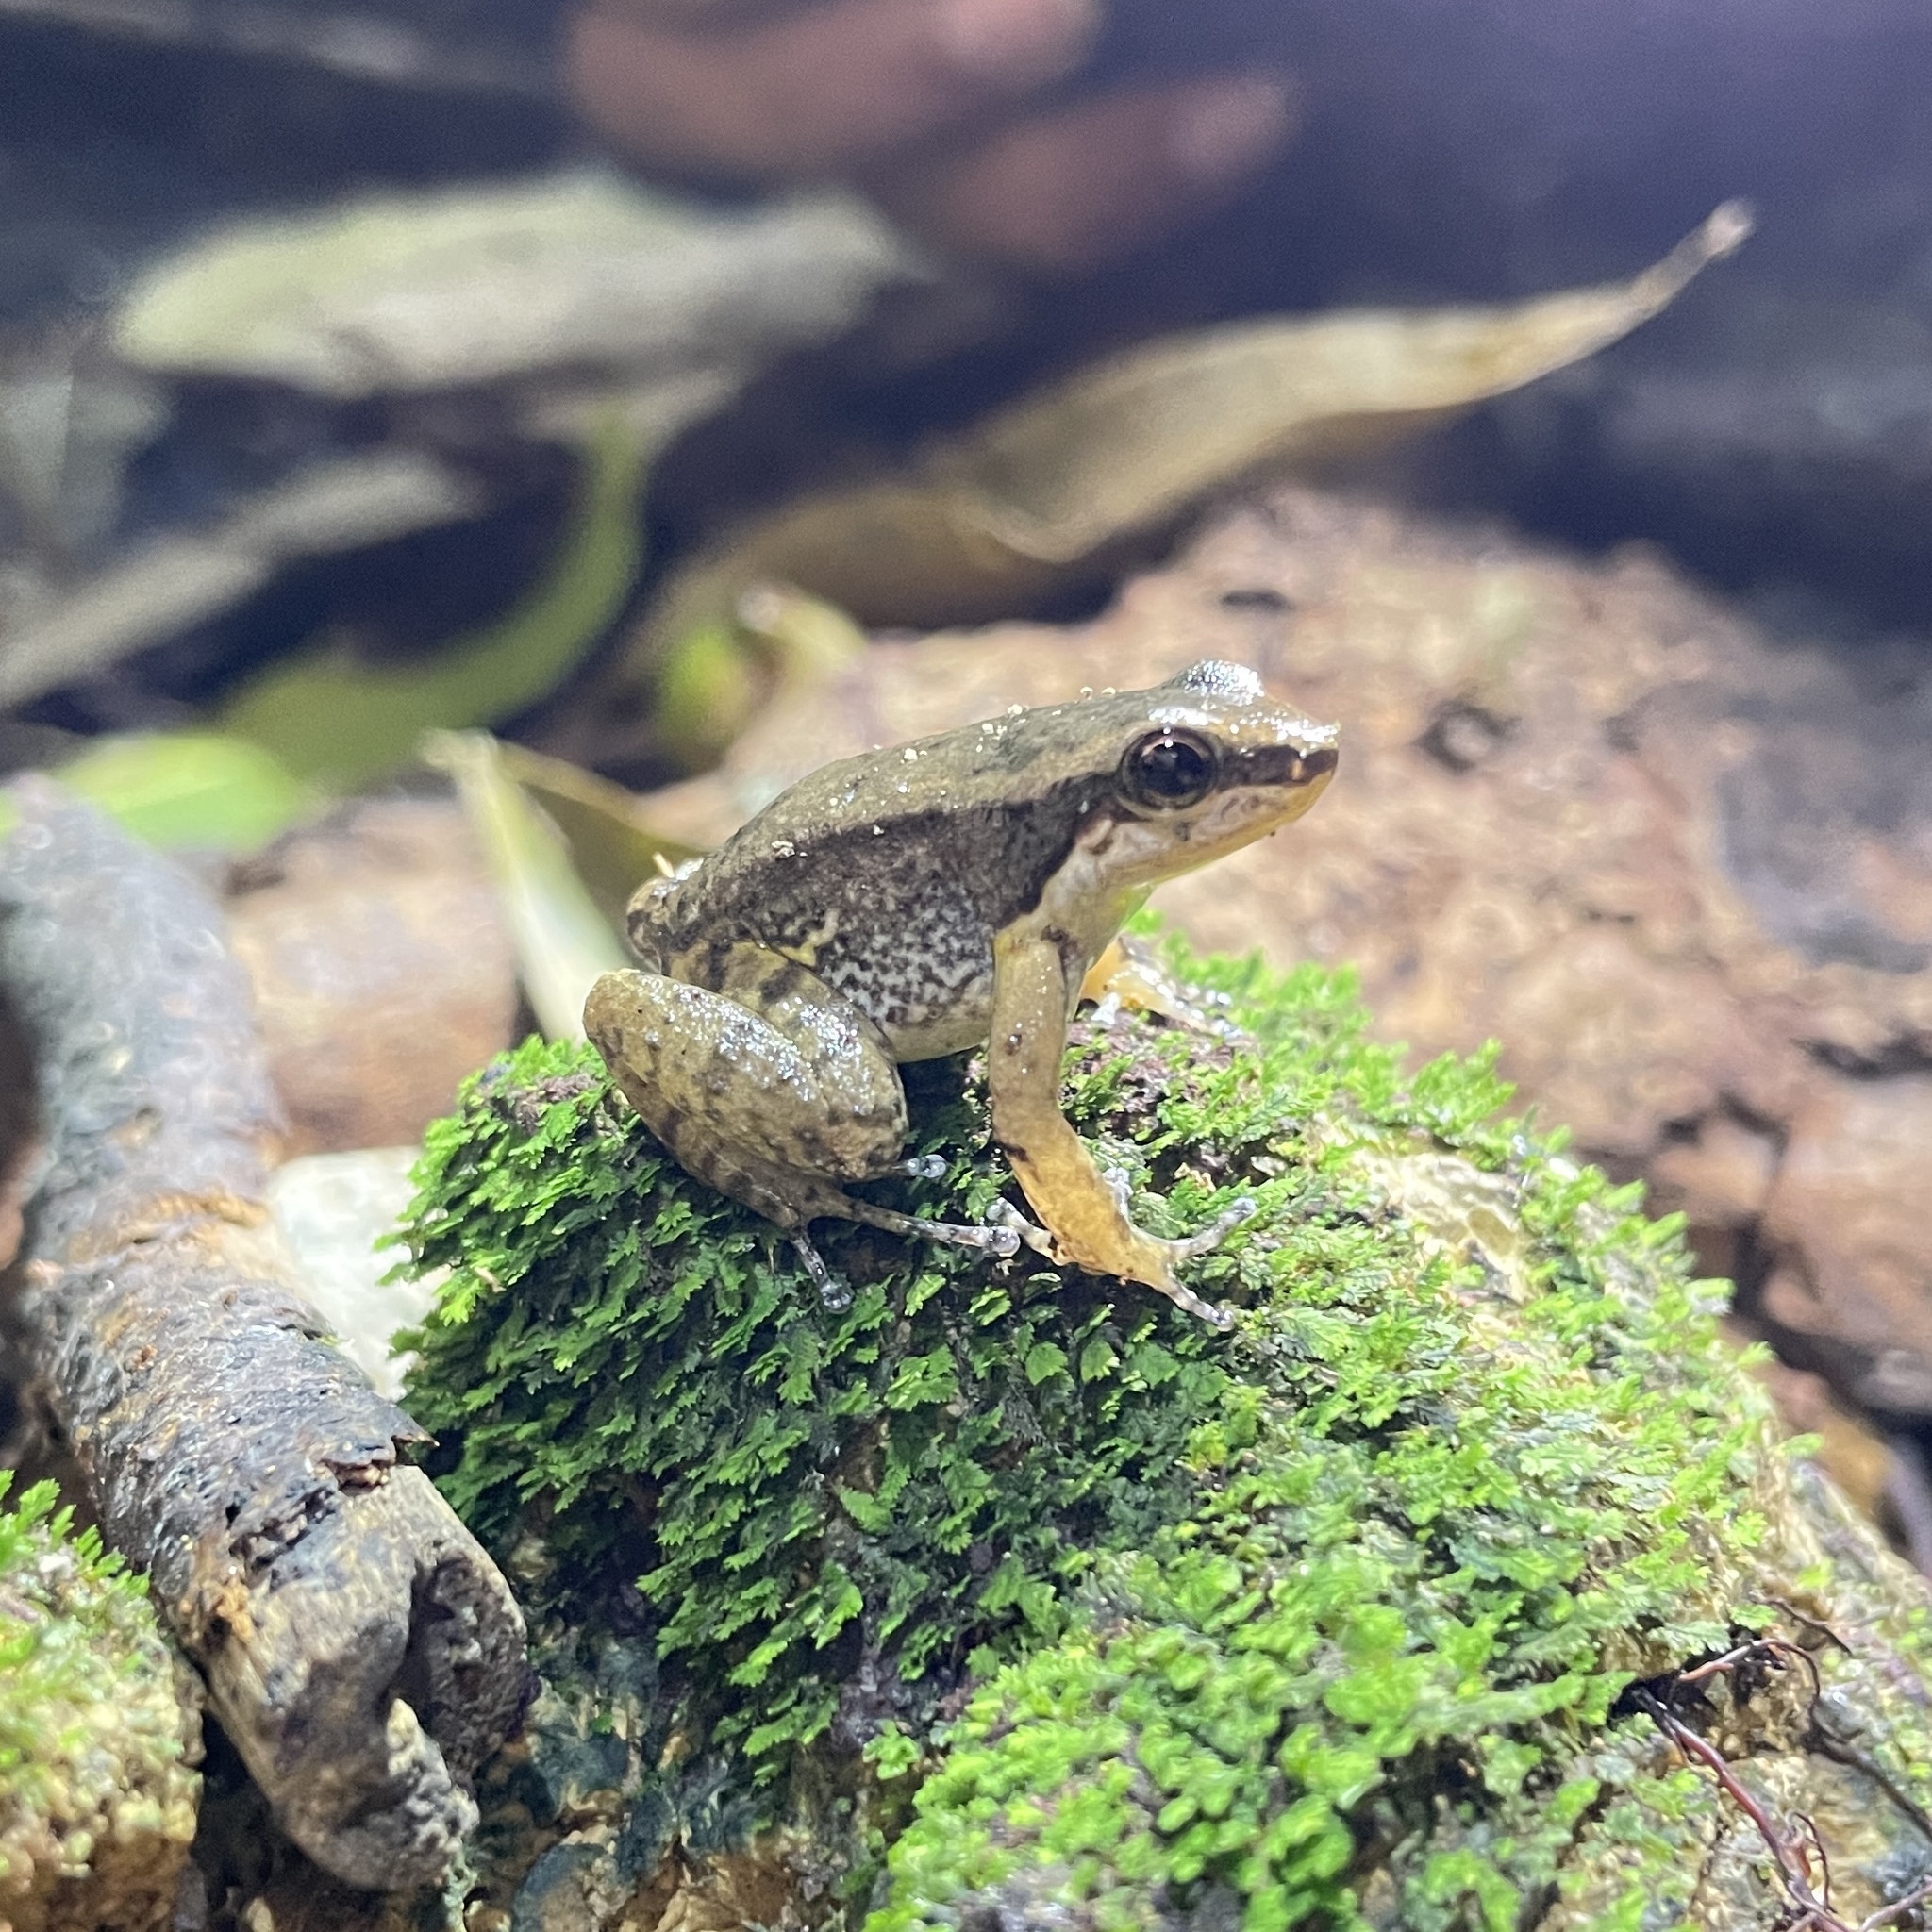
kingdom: Animalia
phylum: Chordata
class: Amphibia
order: Anura
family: Aromobatidae
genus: Mannophryne
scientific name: Mannophryne trinitatis
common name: Trinidad poison frog
